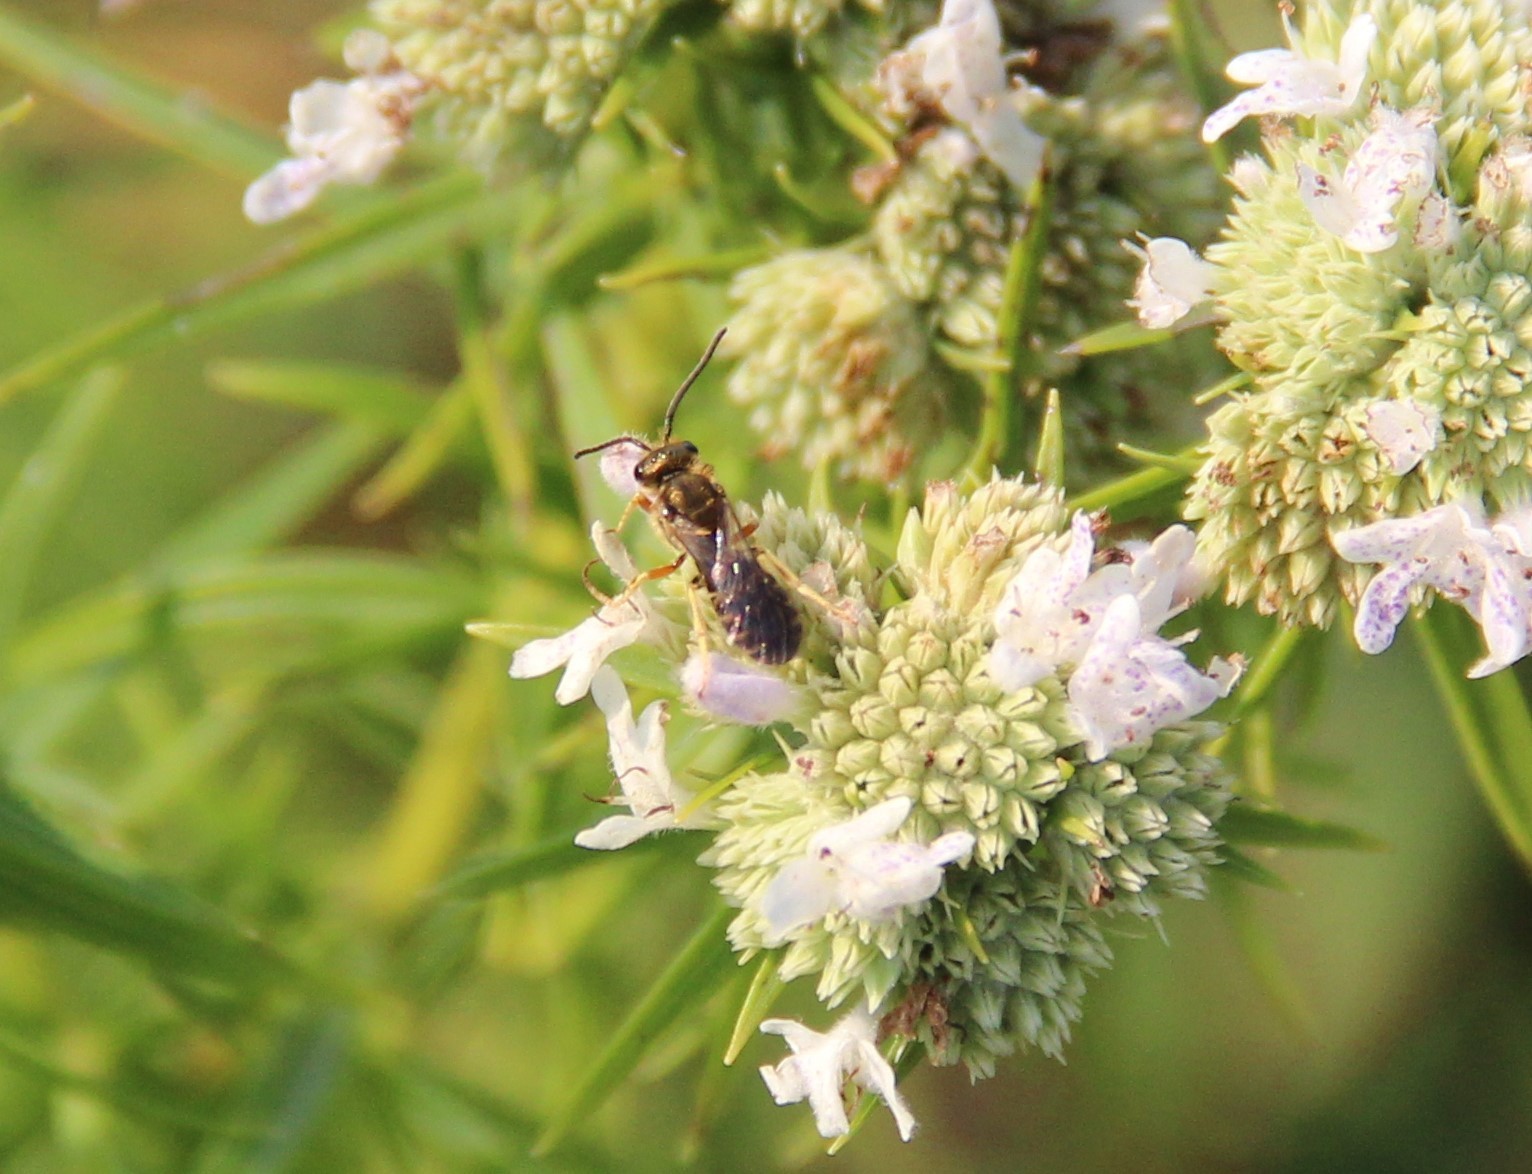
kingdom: Animalia
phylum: Arthropoda
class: Insecta
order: Hymenoptera
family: Halictidae
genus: Halictus
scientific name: Halictus confusus
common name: Southern bronze furrow bee
